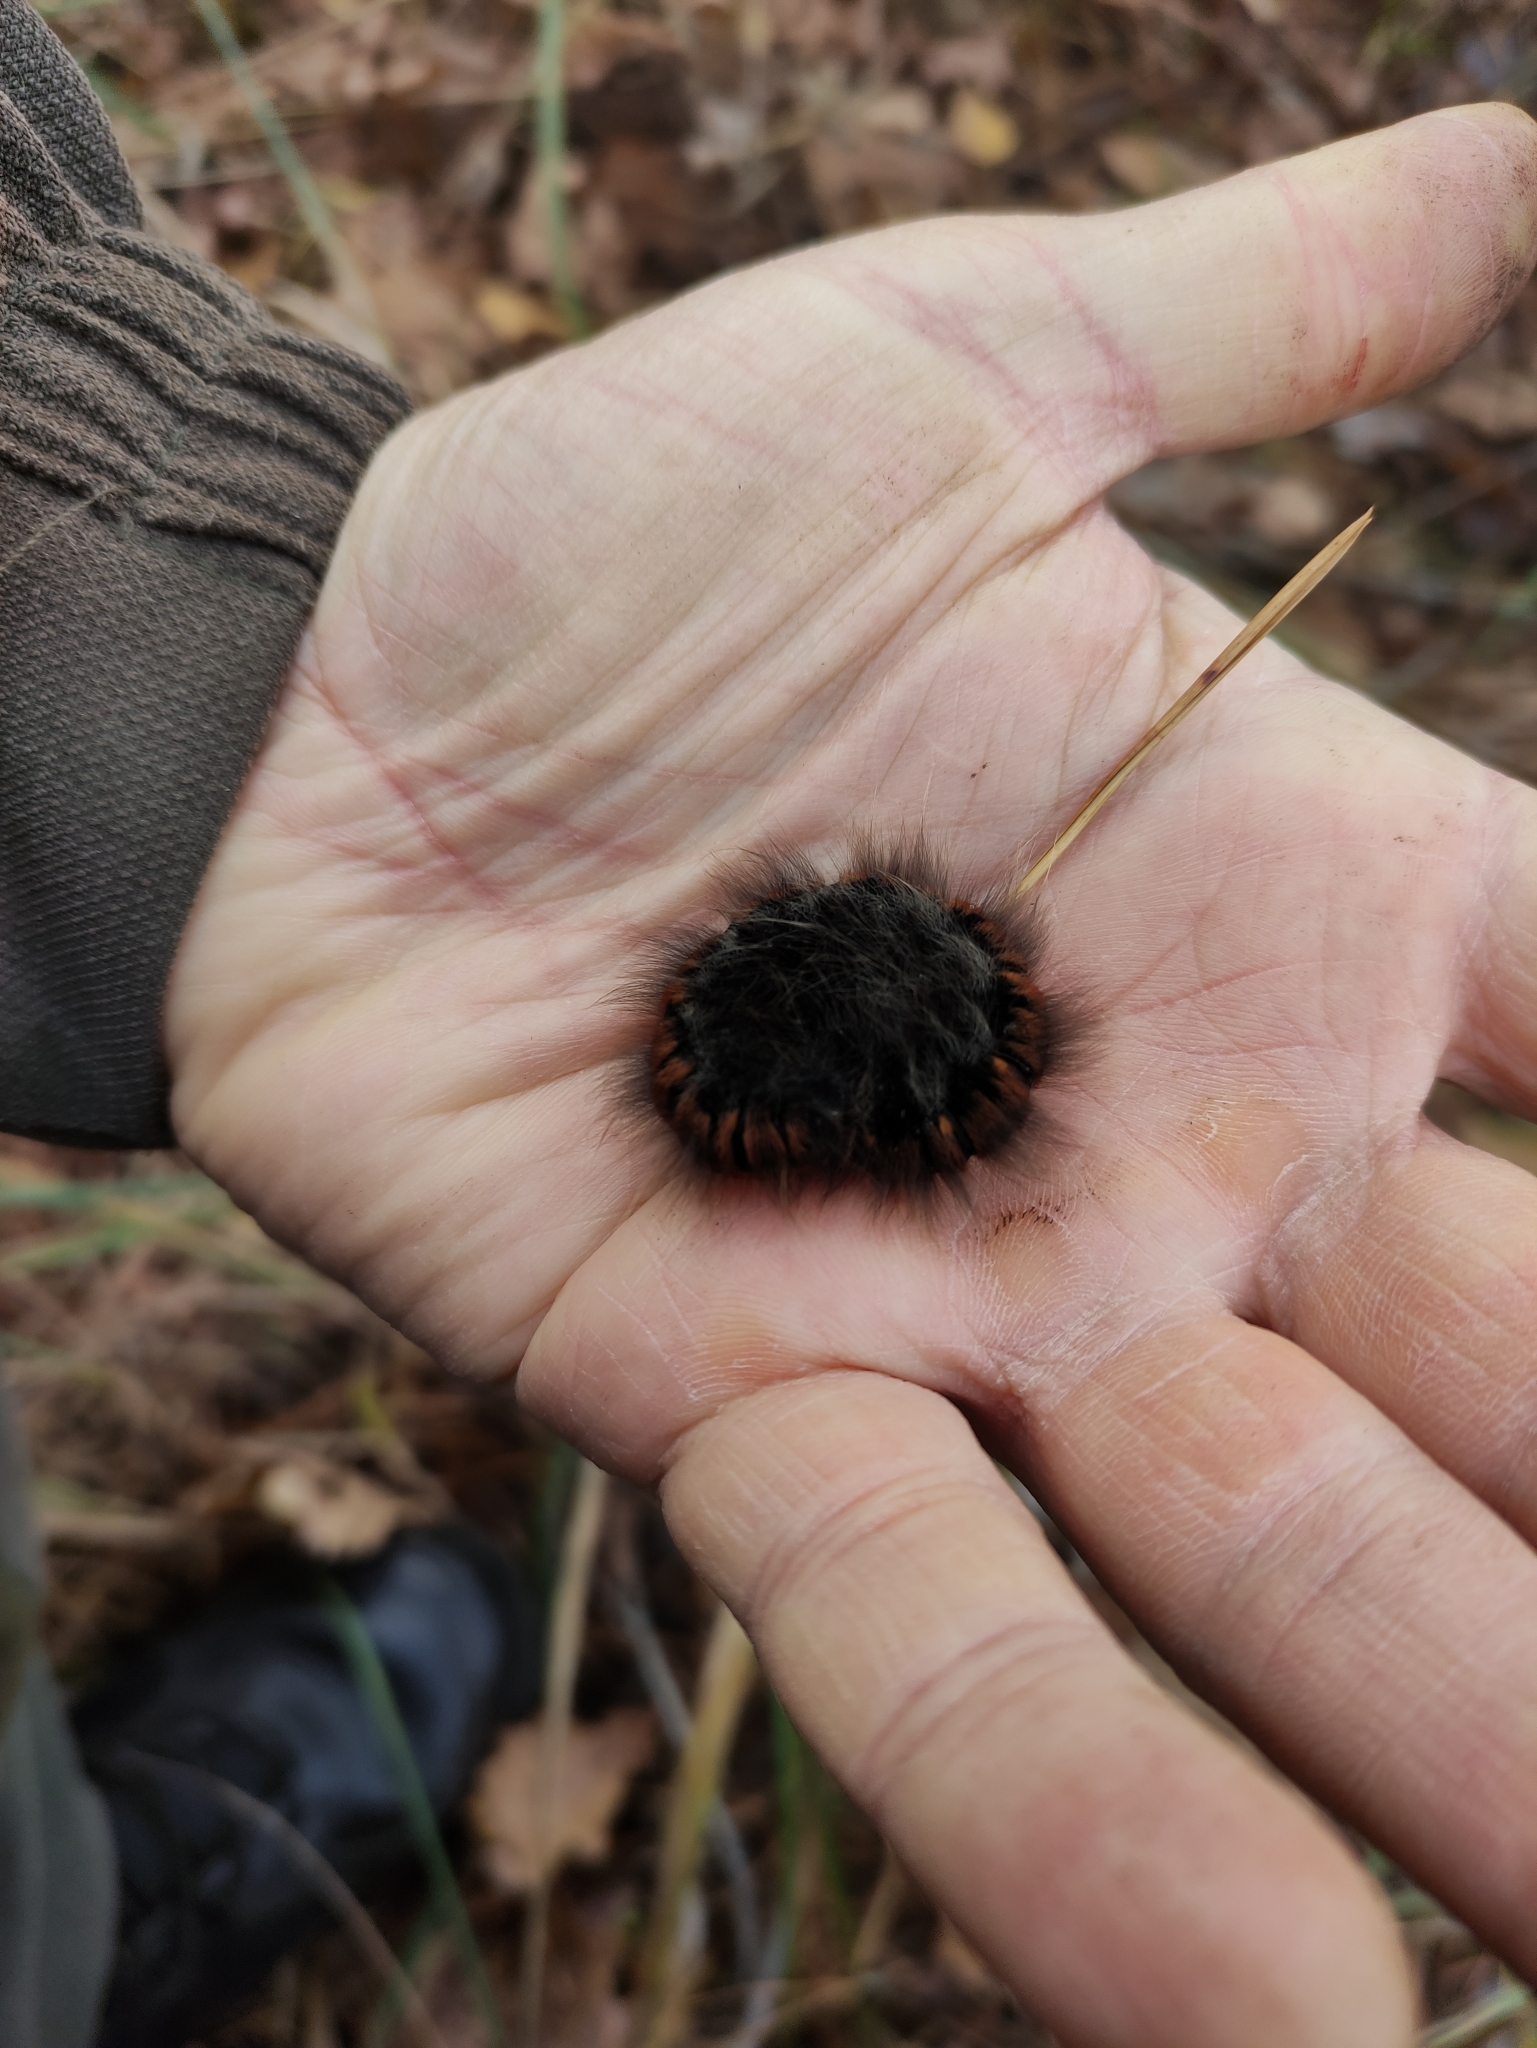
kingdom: Animalia
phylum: Arthropoda
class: Insecta
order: Lepidoptera
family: Lasiocampidae
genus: Macrothylacia
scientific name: Macrothylacia rubi
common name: Fox moth
